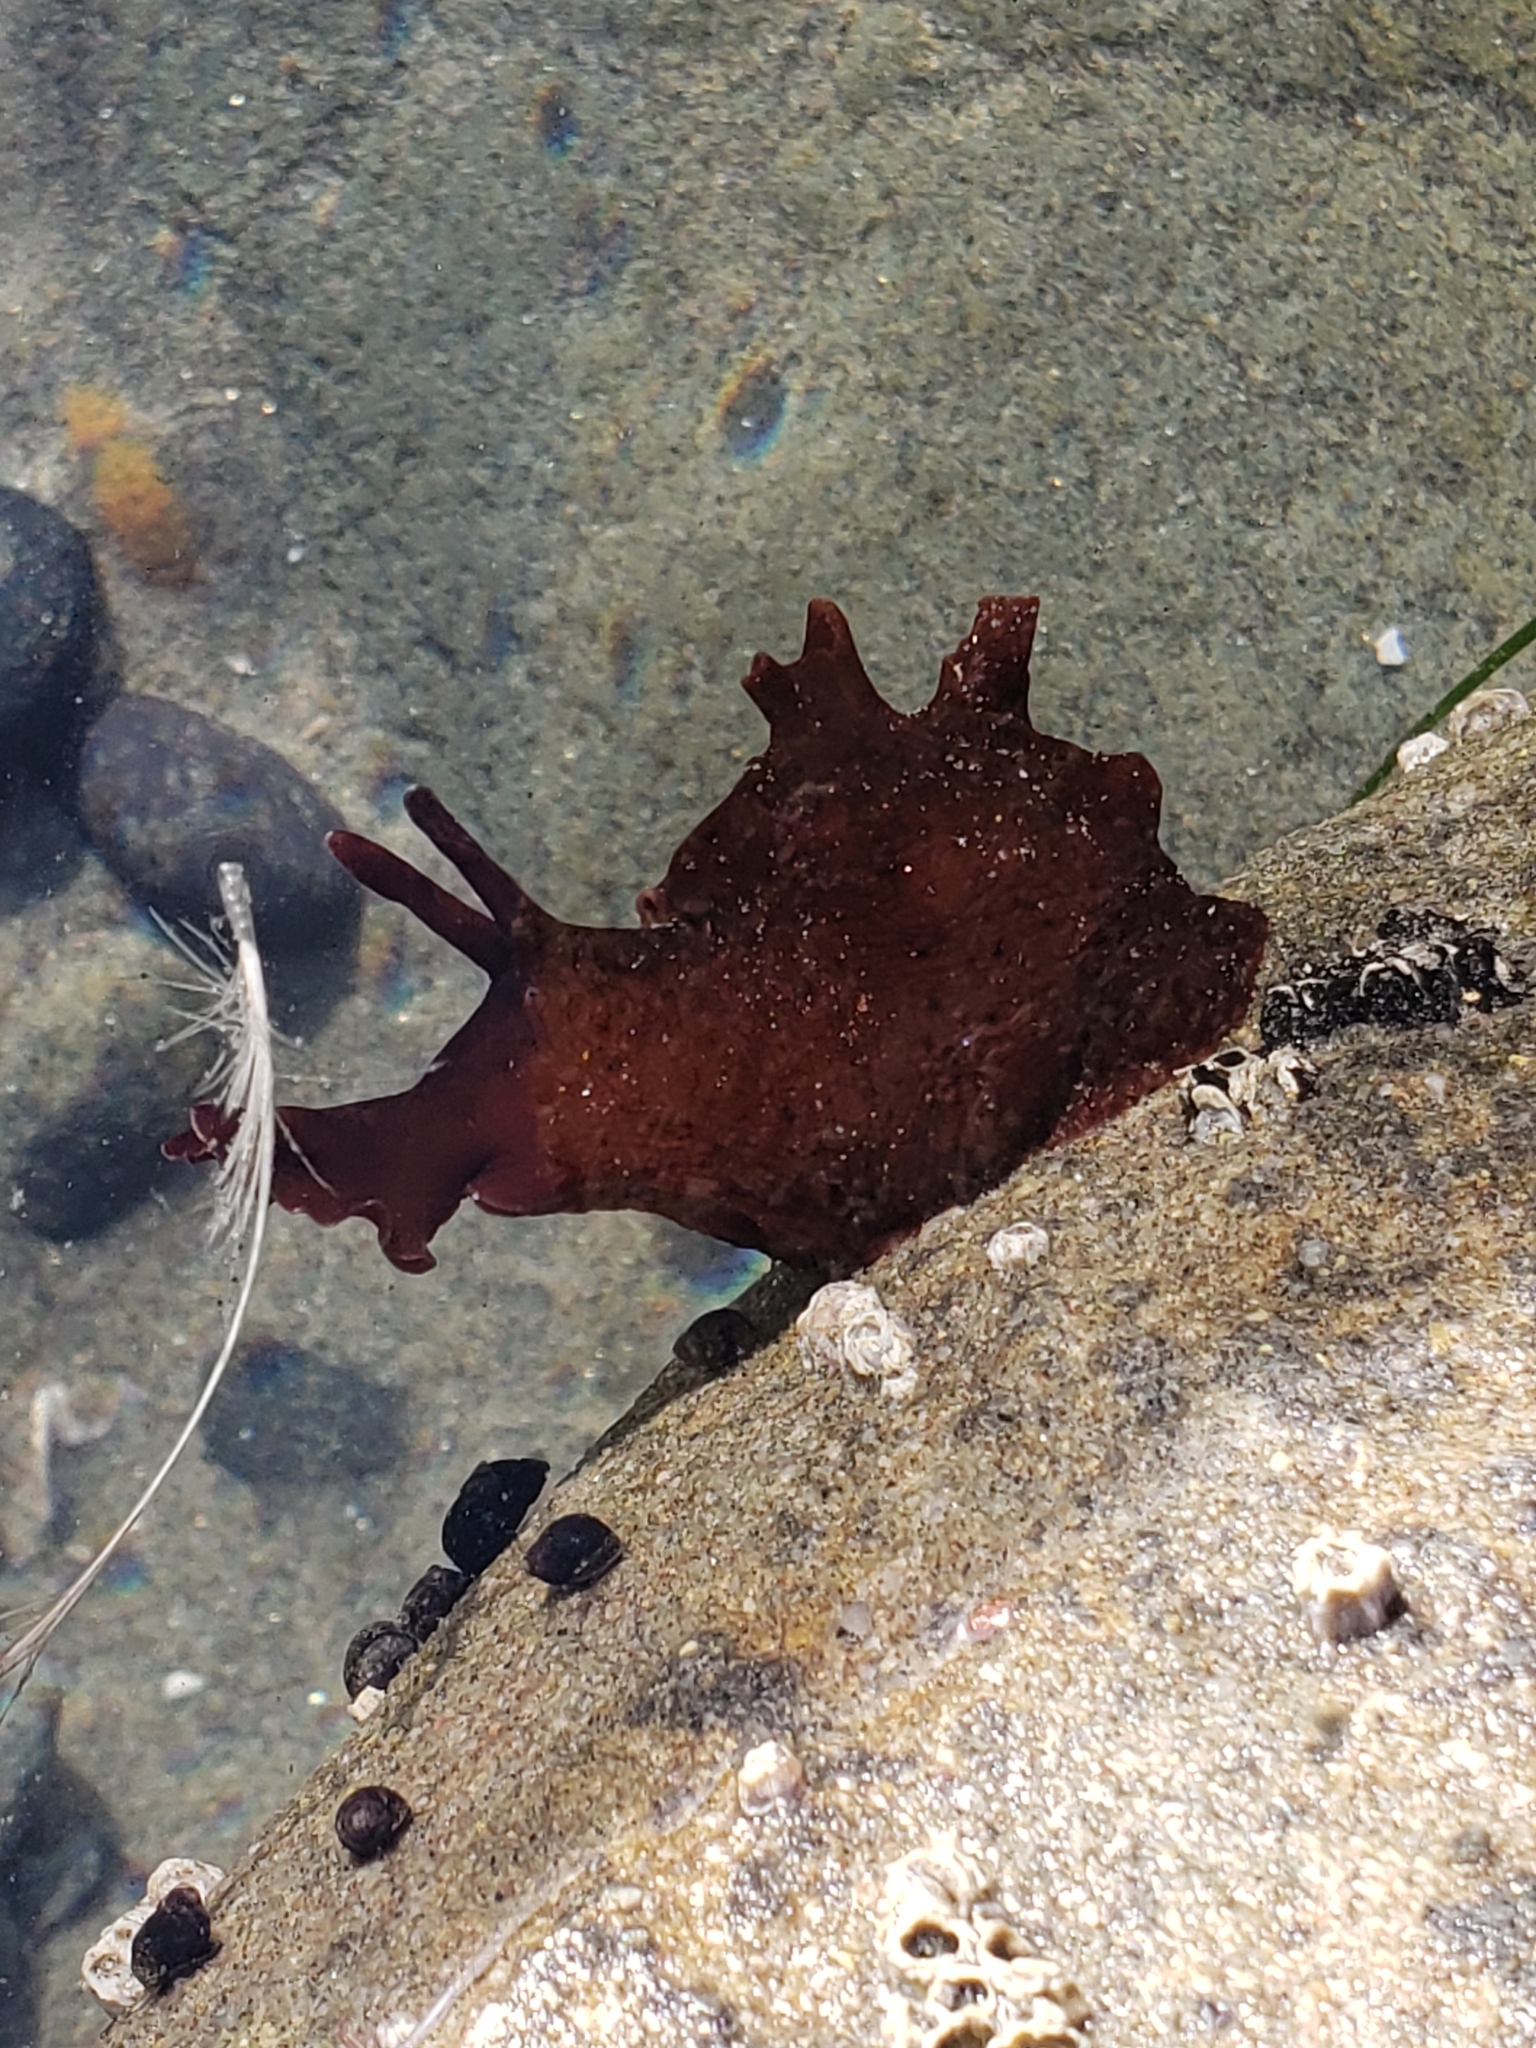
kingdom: Animalia
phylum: Mollusca
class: Gastropoda
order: Aplysiida
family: Aplysiidae
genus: Aplysia
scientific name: Aplysia californica
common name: California seahare
